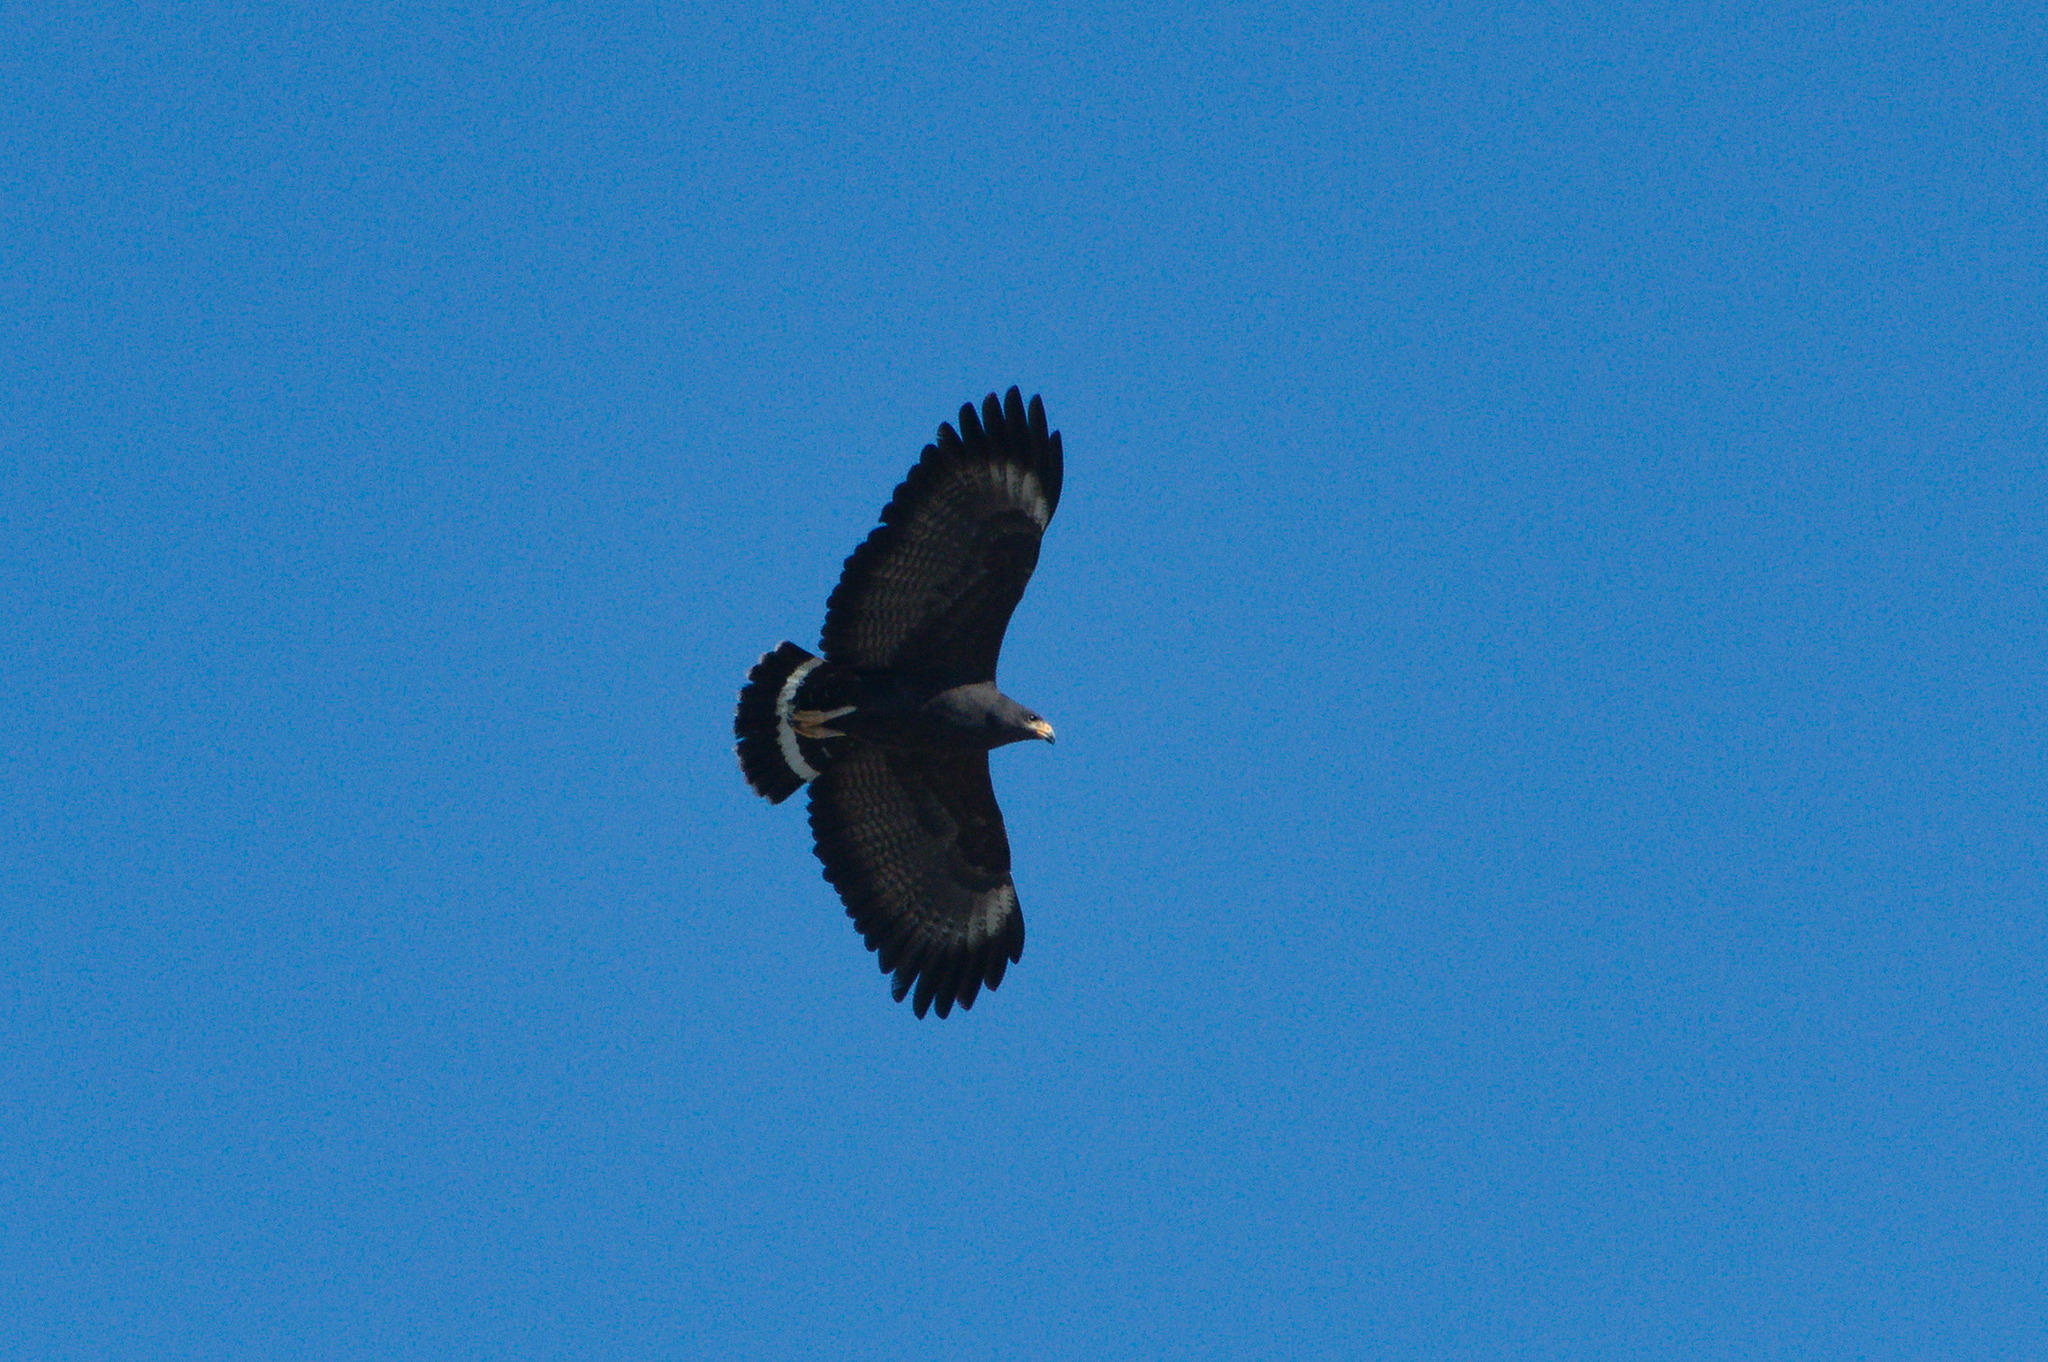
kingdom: Animalia
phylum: Chordata
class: Aves
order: Accipitriformes
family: Accipitridae
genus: Buteogallus
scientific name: Buteogallus anthracinus
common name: Common black hawk
